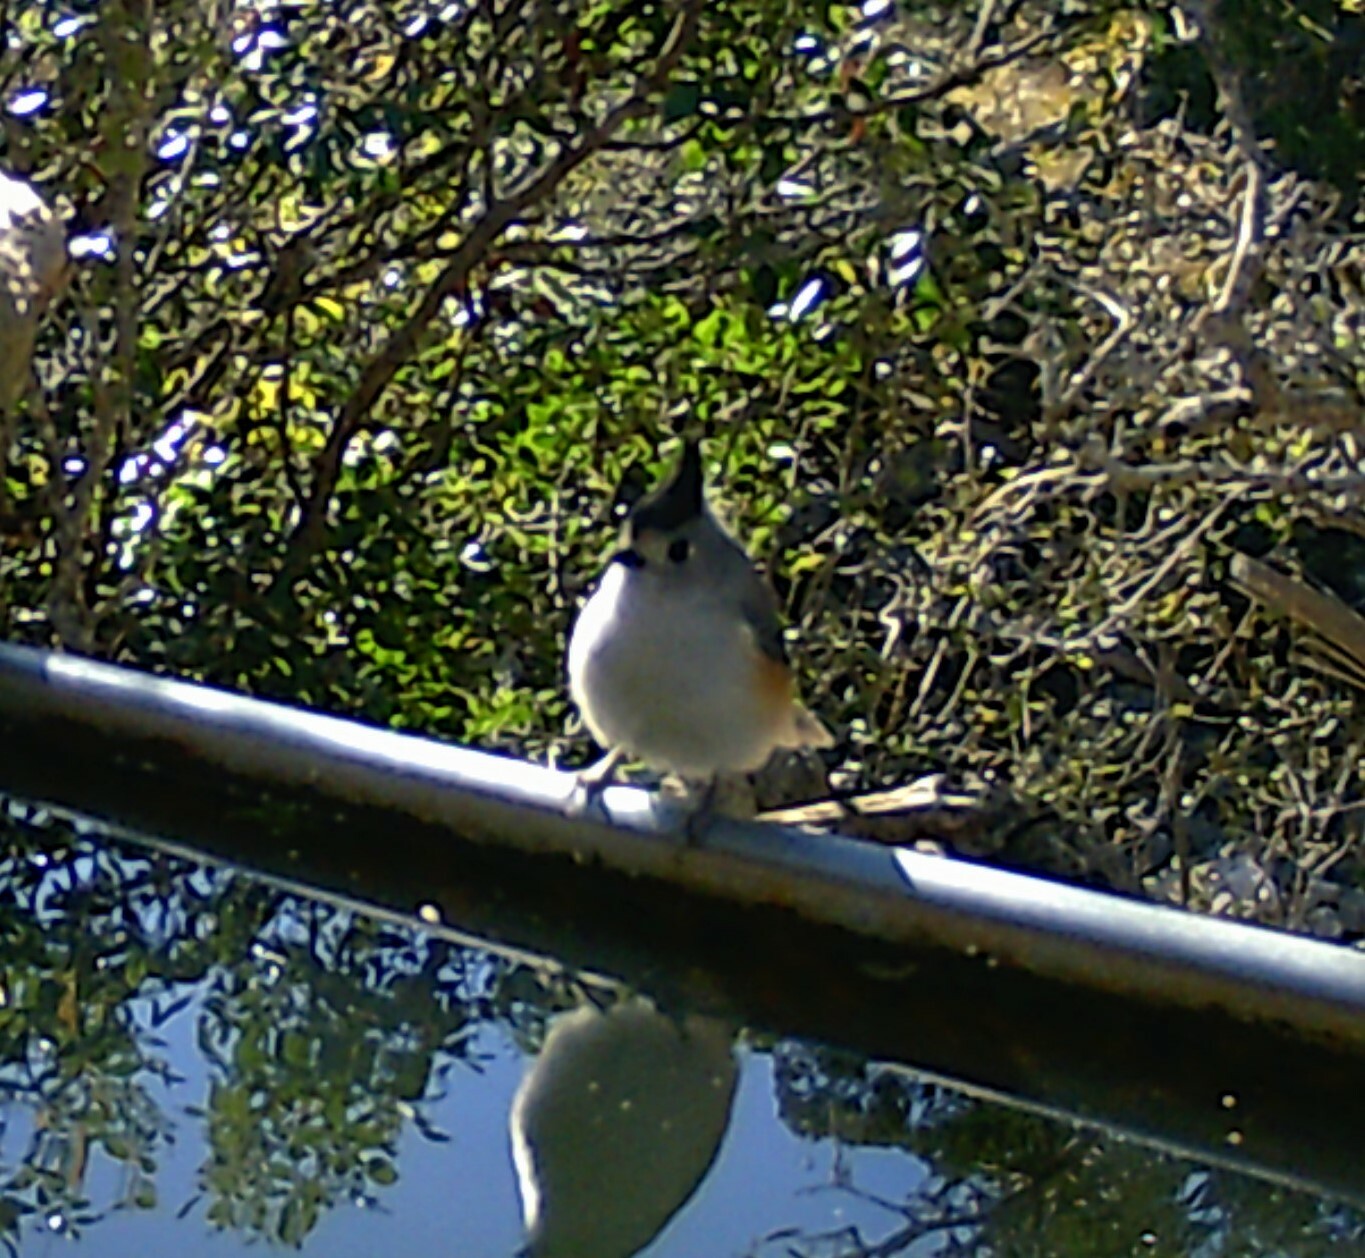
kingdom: Animalia
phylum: Chordata
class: Aves
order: Passeriformes
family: Paridae
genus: Baeolophus
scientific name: Baeolophus atricristatus
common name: Black-crested titmouse
